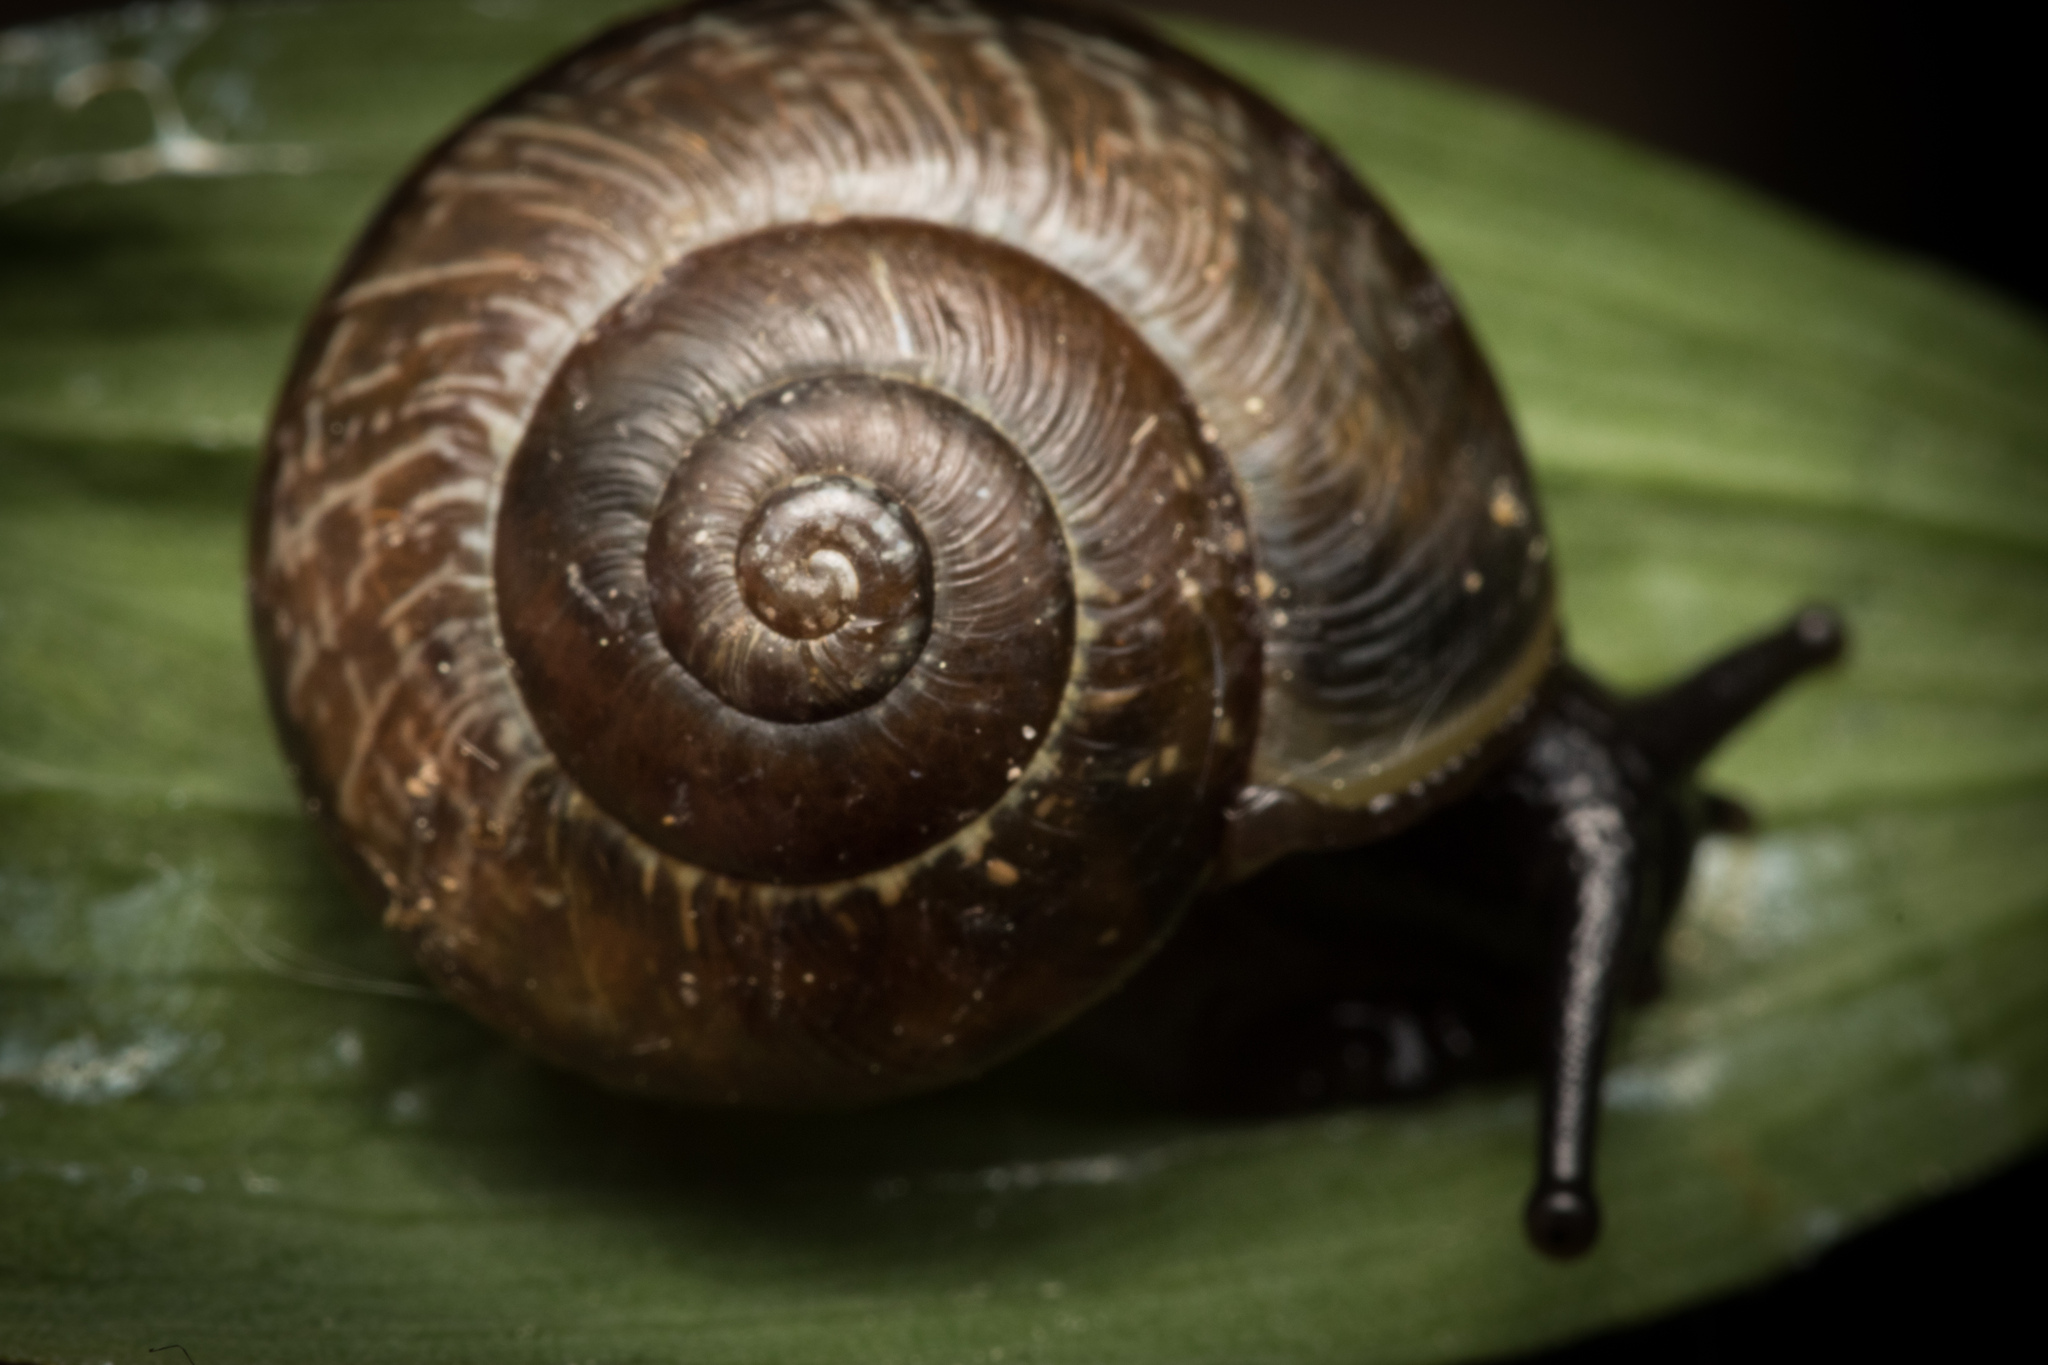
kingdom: Animalia
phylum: Mollusca
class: Gastropoda
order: Stylommatophora
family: Helicidae
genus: Arianta
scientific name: Arianta arbustorum
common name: Copse snail
